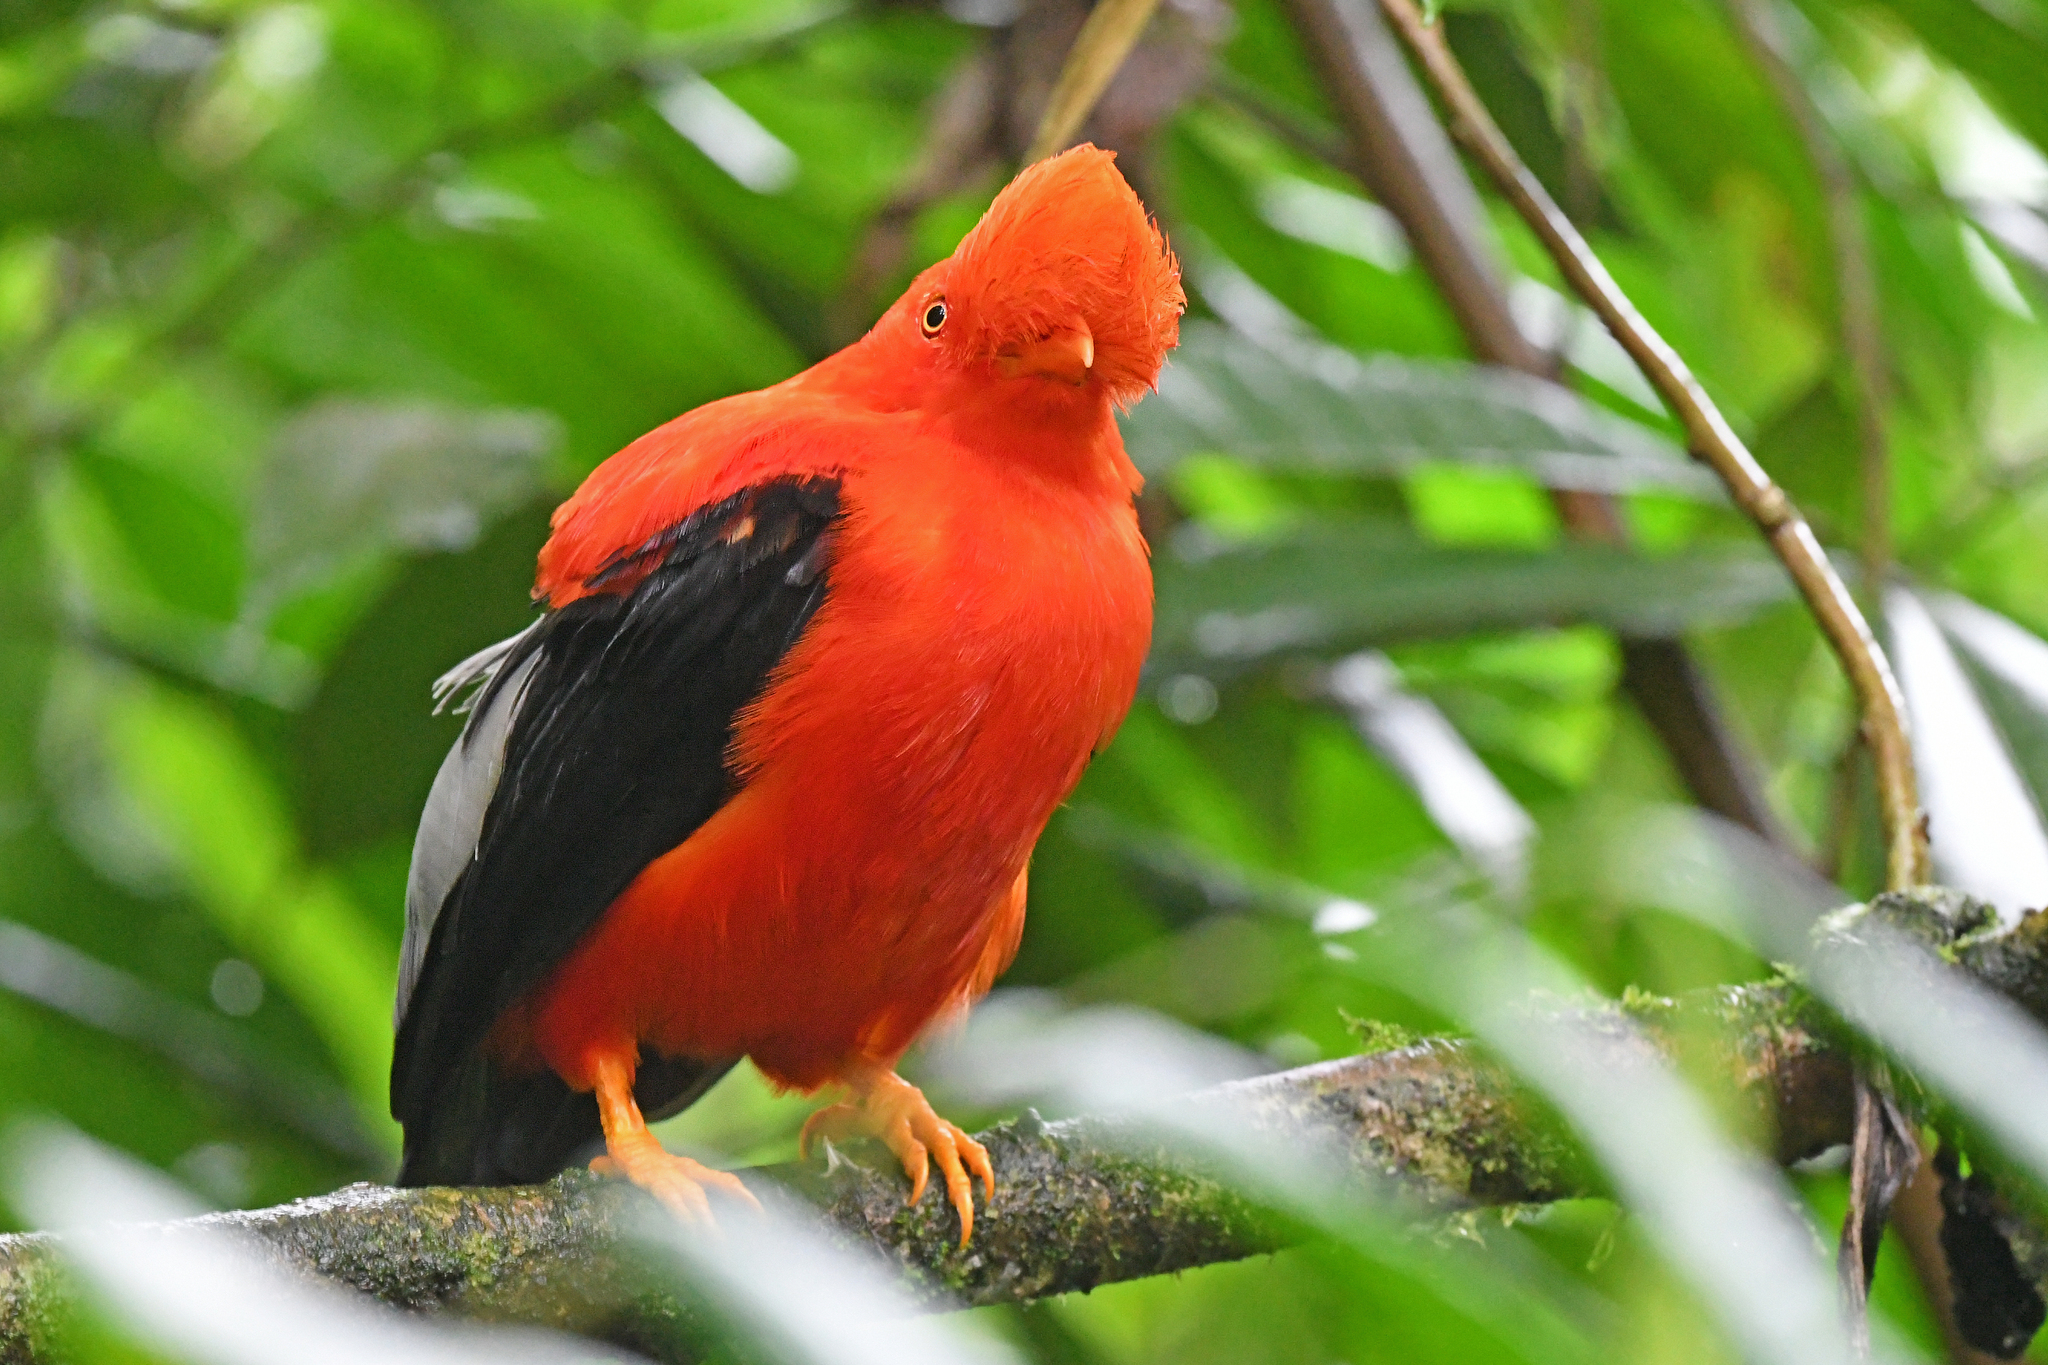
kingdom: Animalia
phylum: Chordata
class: Aves
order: Passeriformes
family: Cotingidae
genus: Rupicola
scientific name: Rupicola peruvianus
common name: Andean cock-of-the-rock
